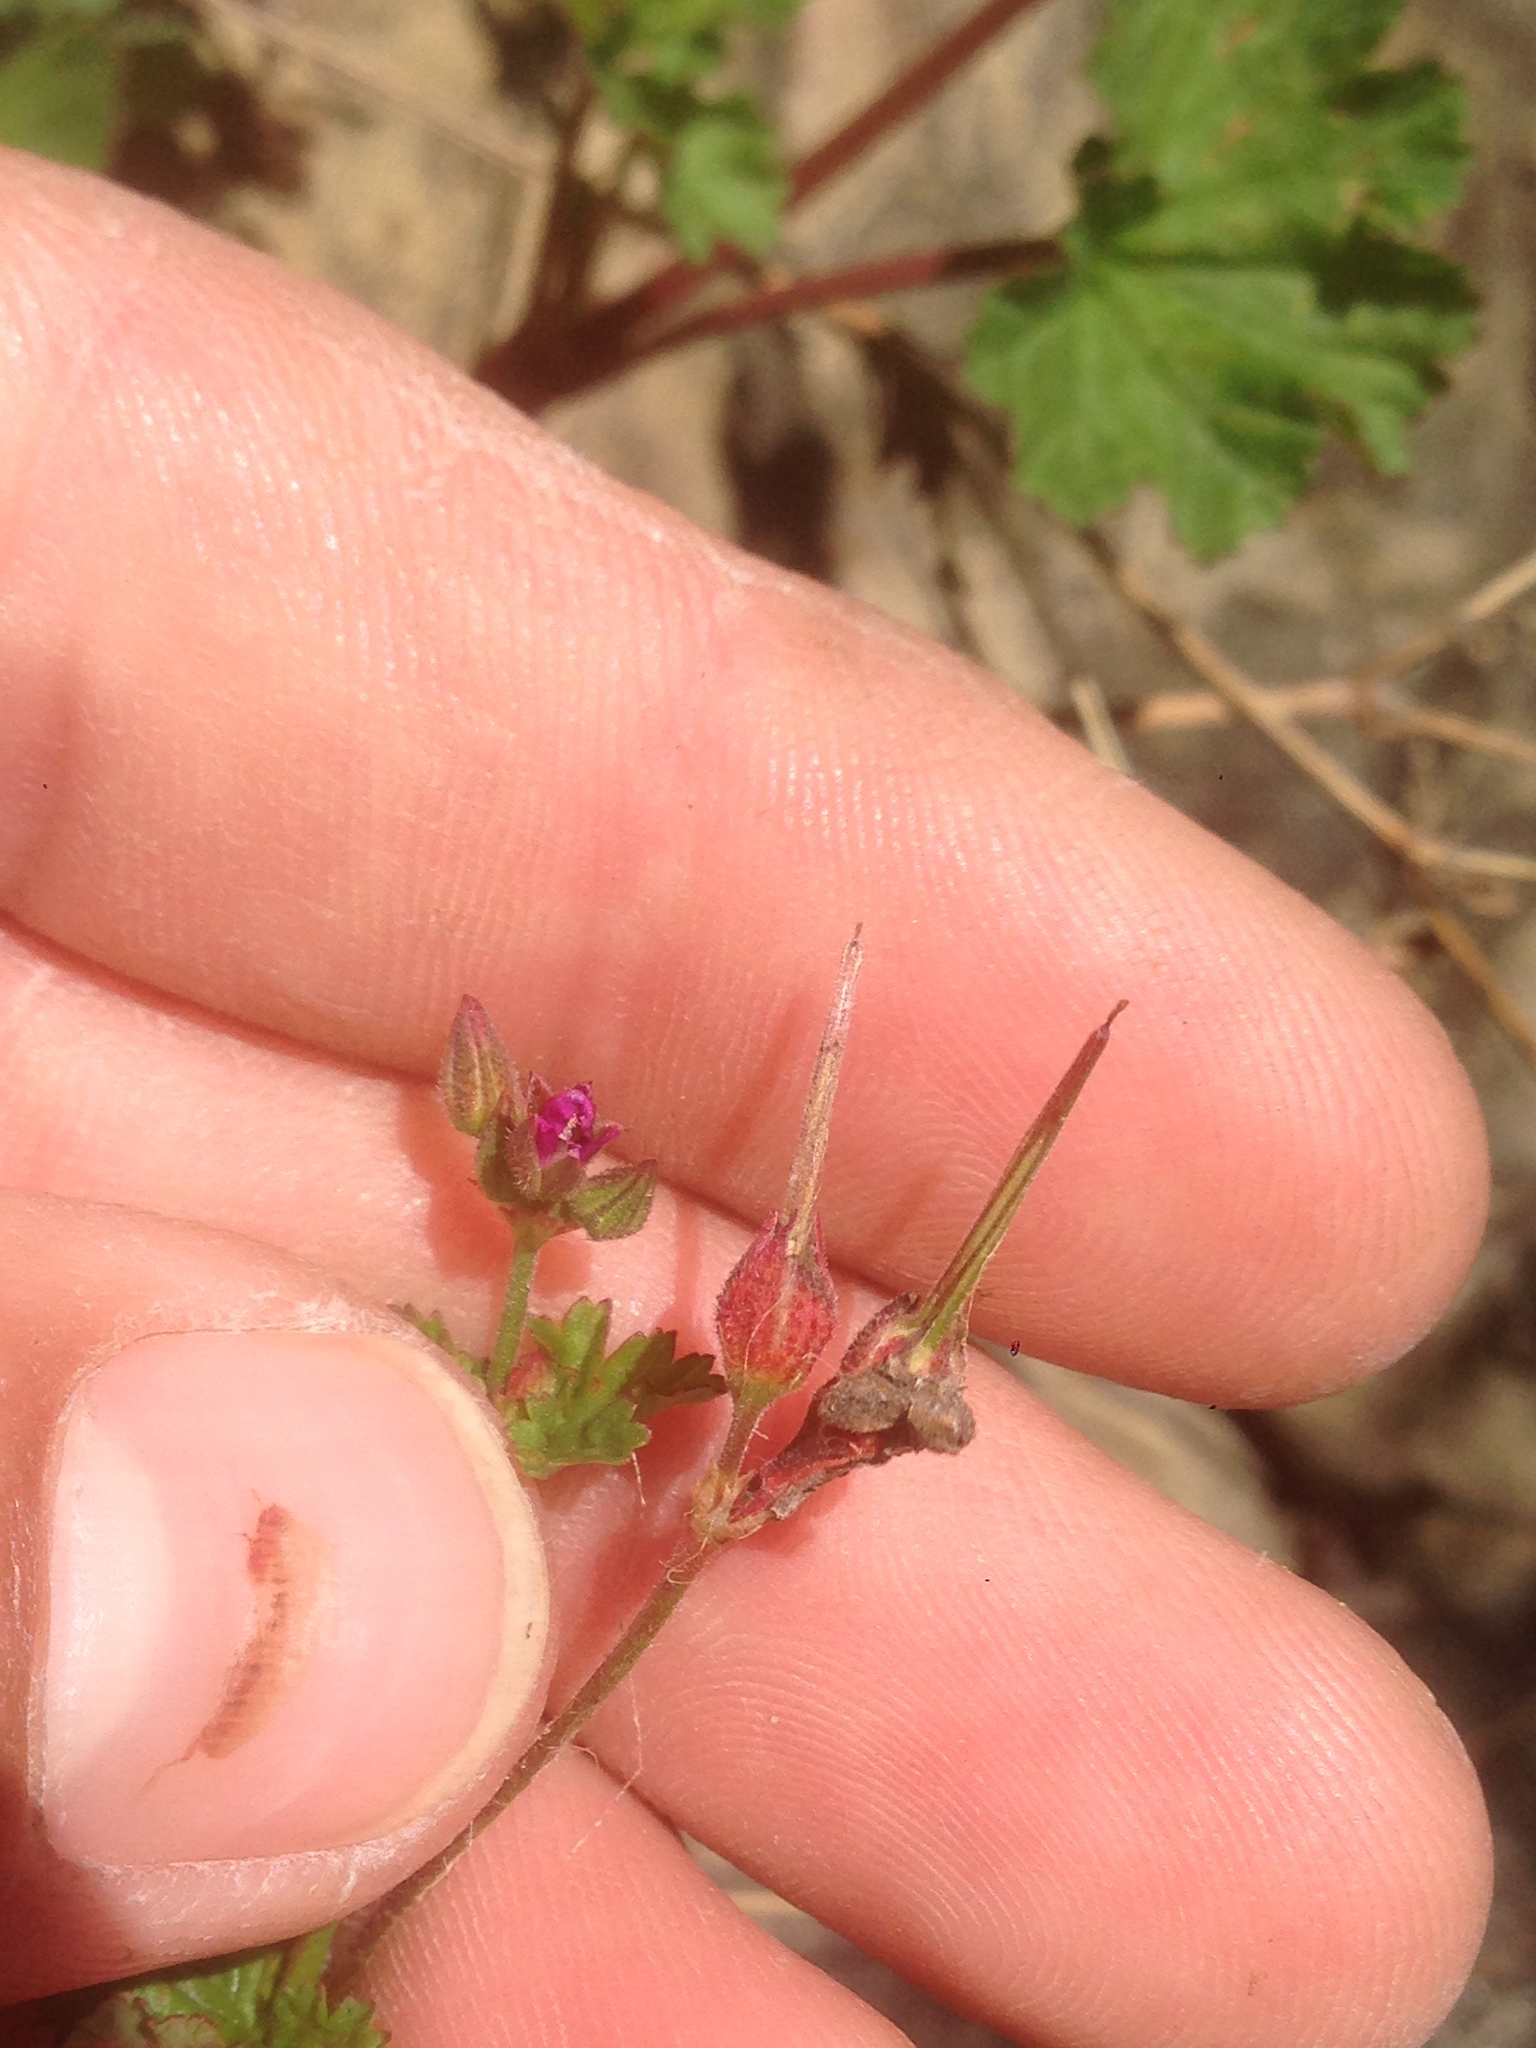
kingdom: Plantae
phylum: Tracheophyta
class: Magnoliopsida
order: Geraniales
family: Geraniaceae
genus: Pelargonium
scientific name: Pelargonium grossularioides
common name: Gooseberry geranium
